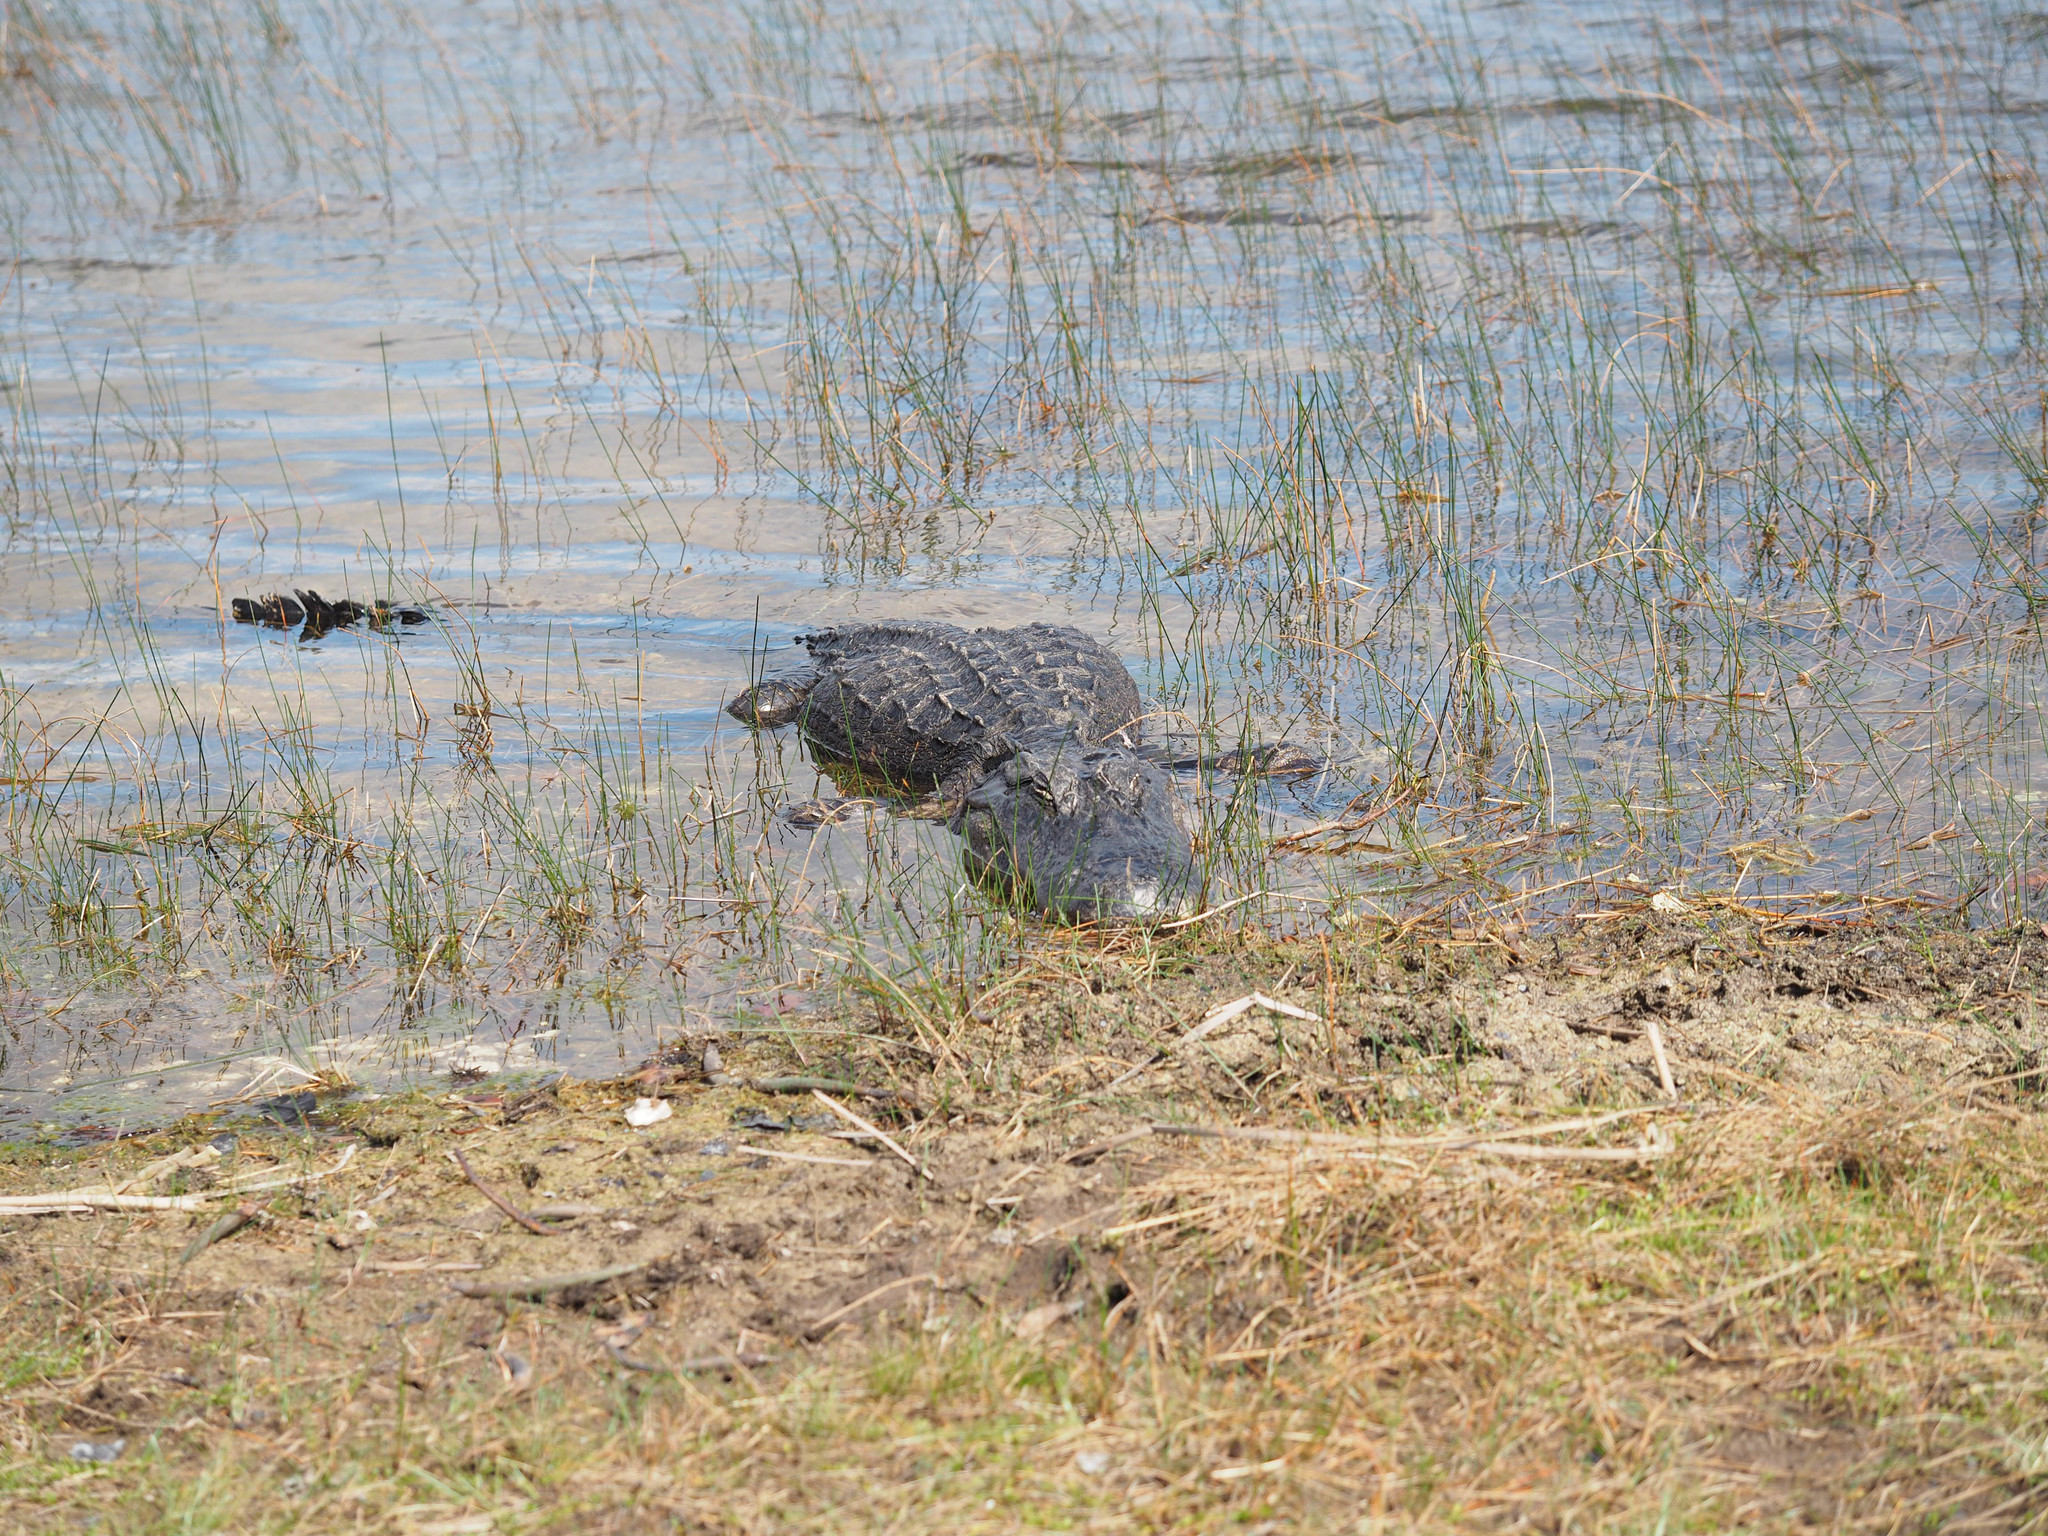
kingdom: Animalia
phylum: Chordata
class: Crocodylia
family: Alligatoridae
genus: Alligator
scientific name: Alligator mississippiensis
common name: American alligator
